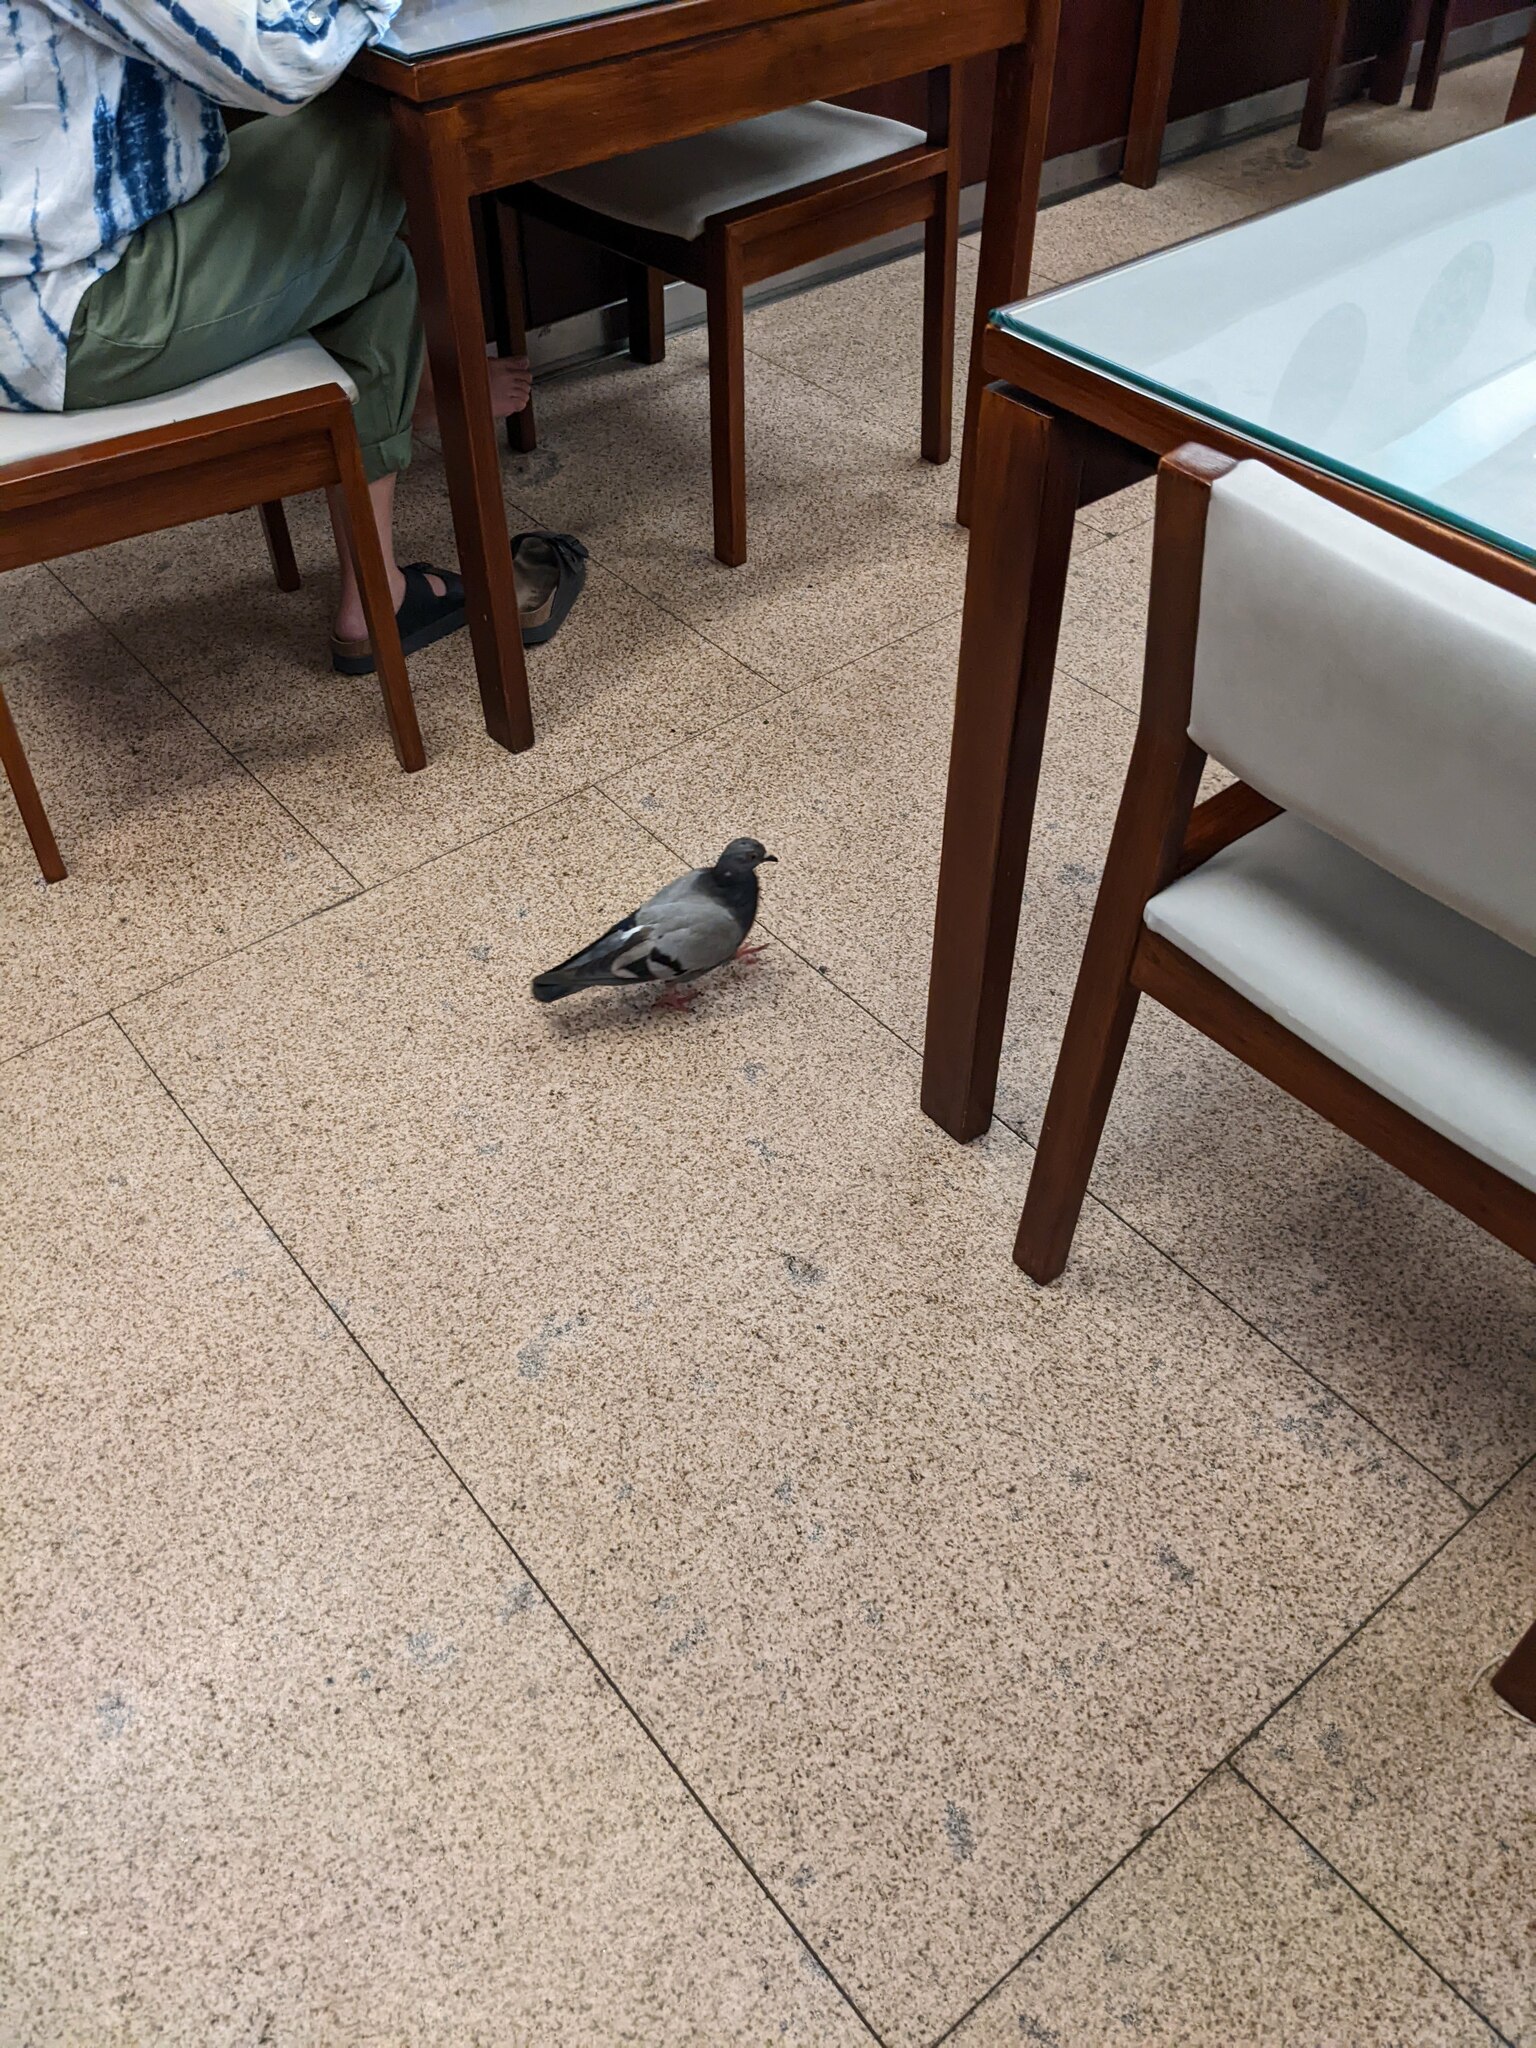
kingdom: Animalia
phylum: Chordata
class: Aves
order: Columbiformes
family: Columbidae
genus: Columba
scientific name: Columba livia
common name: Rock pigeon
